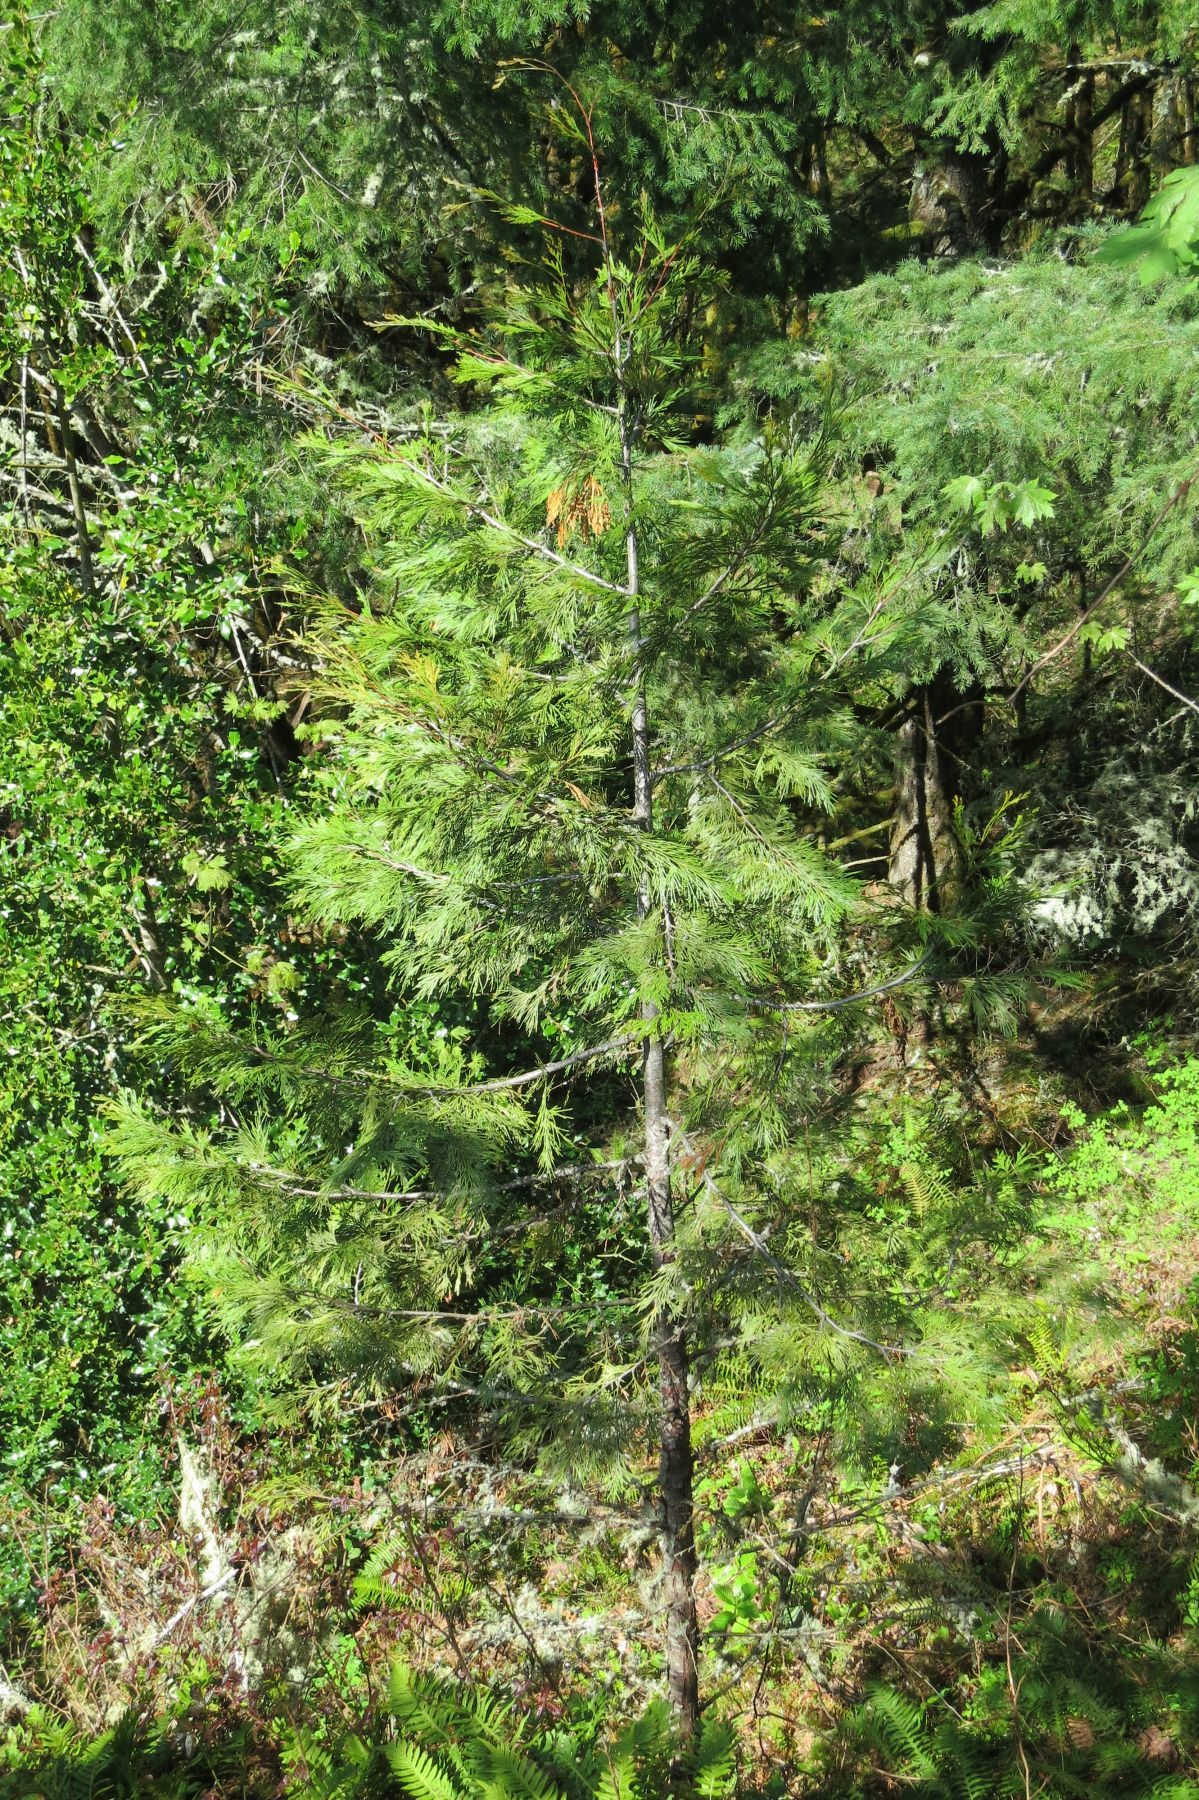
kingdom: Plantae
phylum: Tracheophyta
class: Pinopsida
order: Pinales
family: Cupressaceae
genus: Calocedrus
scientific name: Calocedrus decurrens
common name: Californian incense-cedar
